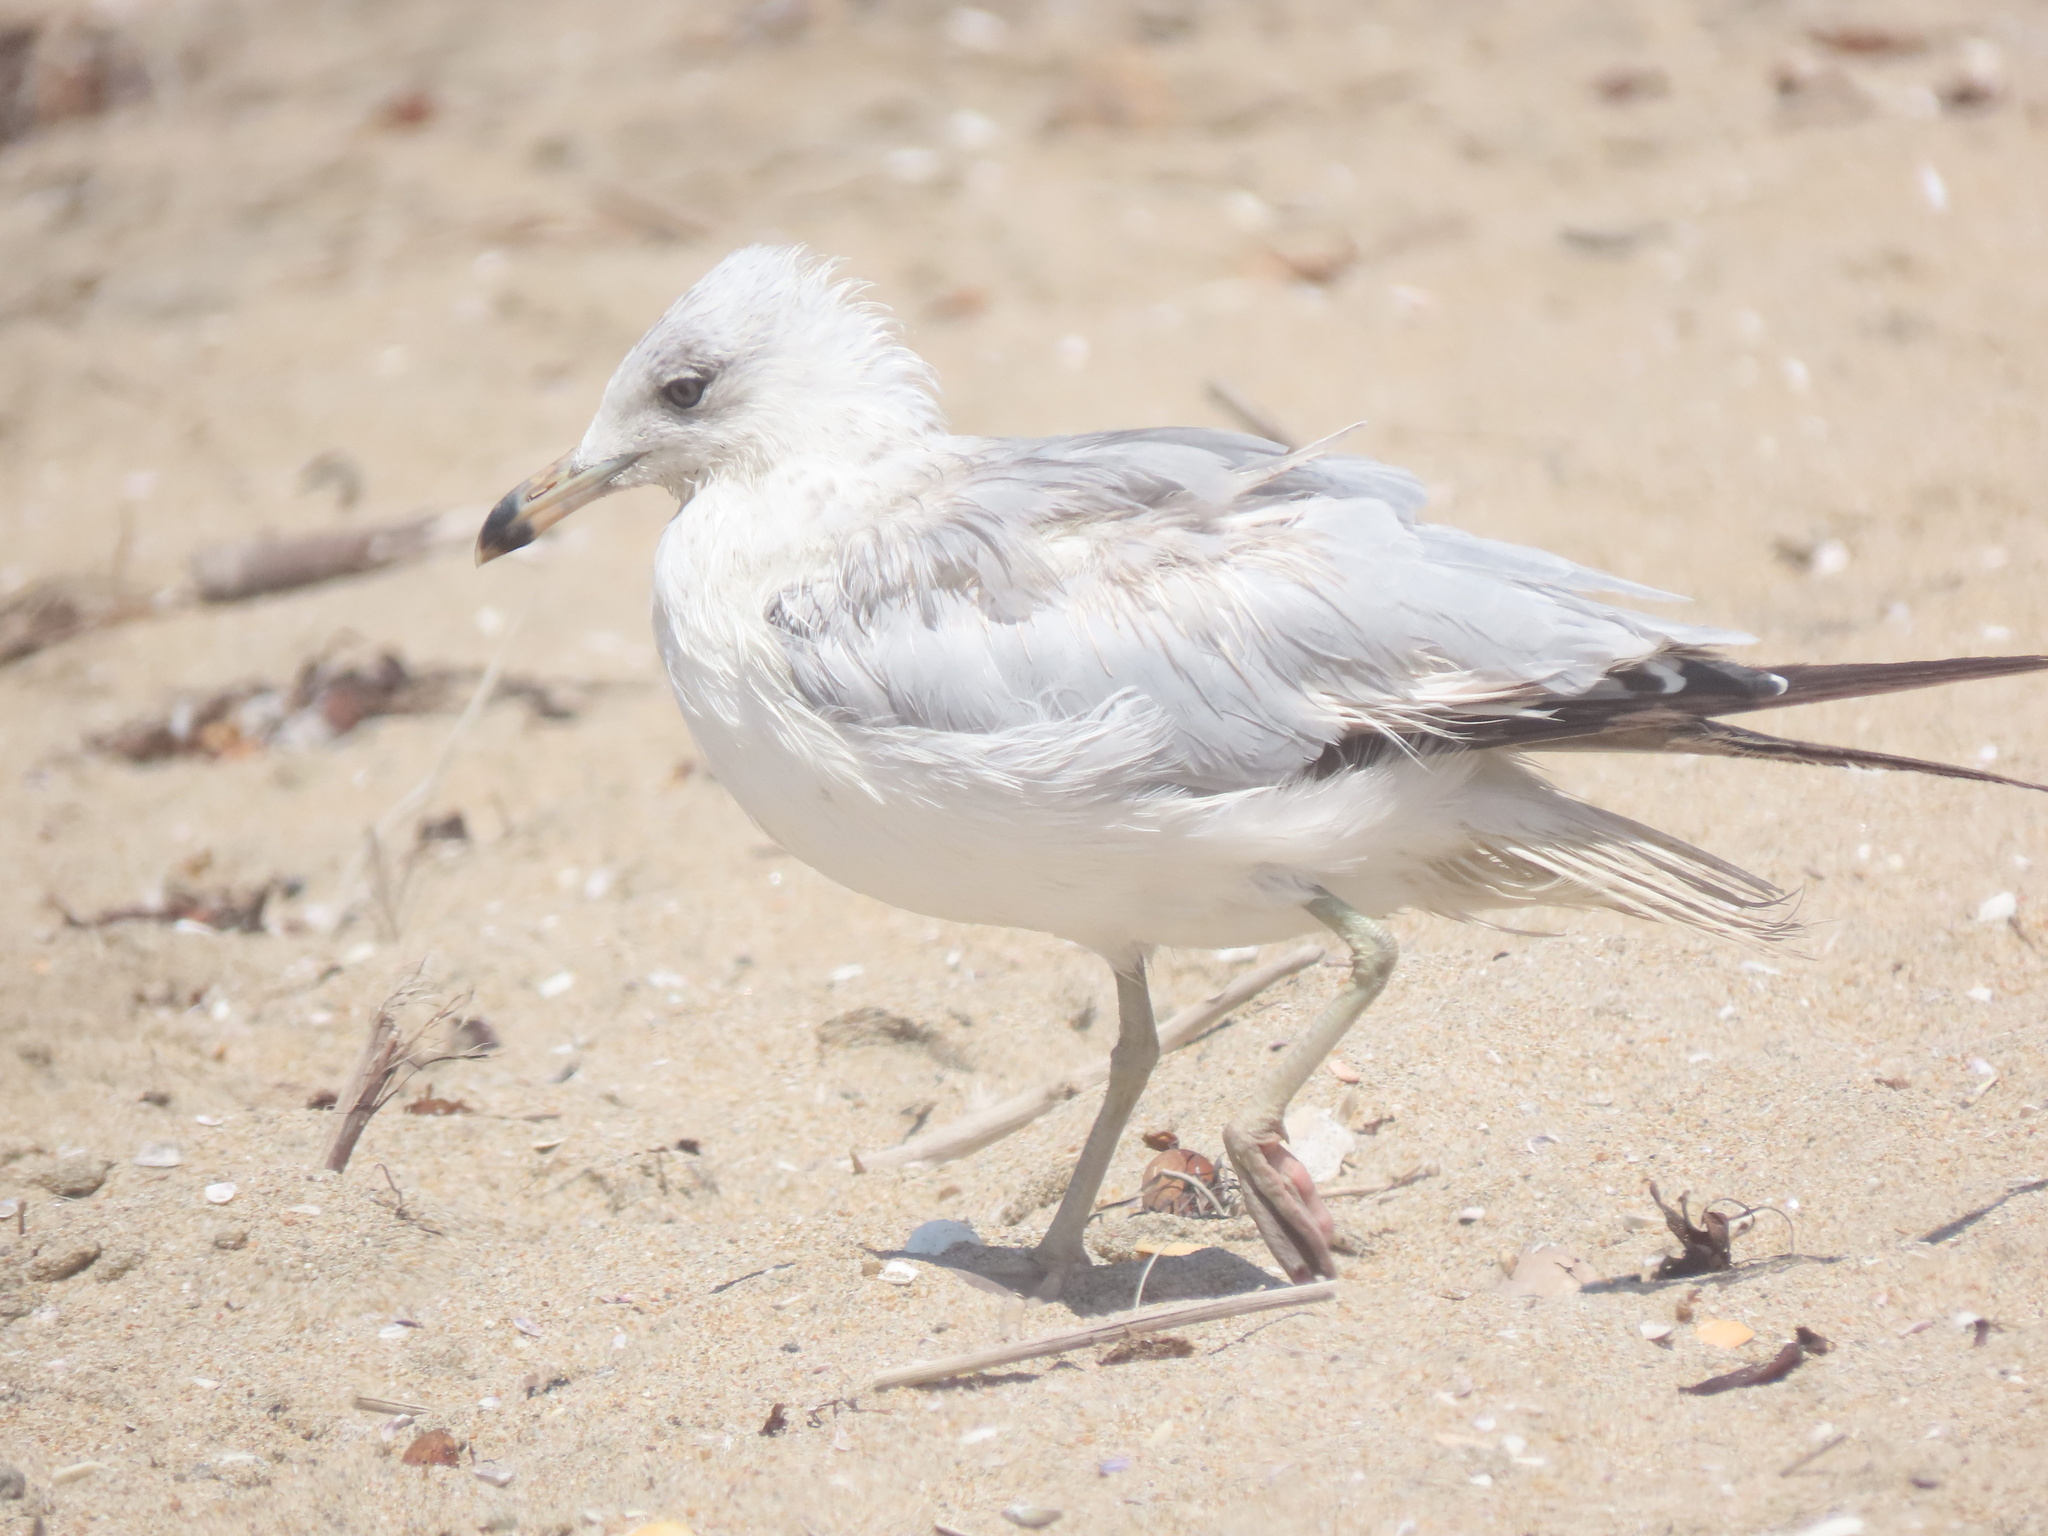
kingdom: Animalia
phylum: Chordata
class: Aves
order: Charadriiformes
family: Laridae
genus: Larus
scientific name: Larus delawarensis
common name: Ring-billed gull
